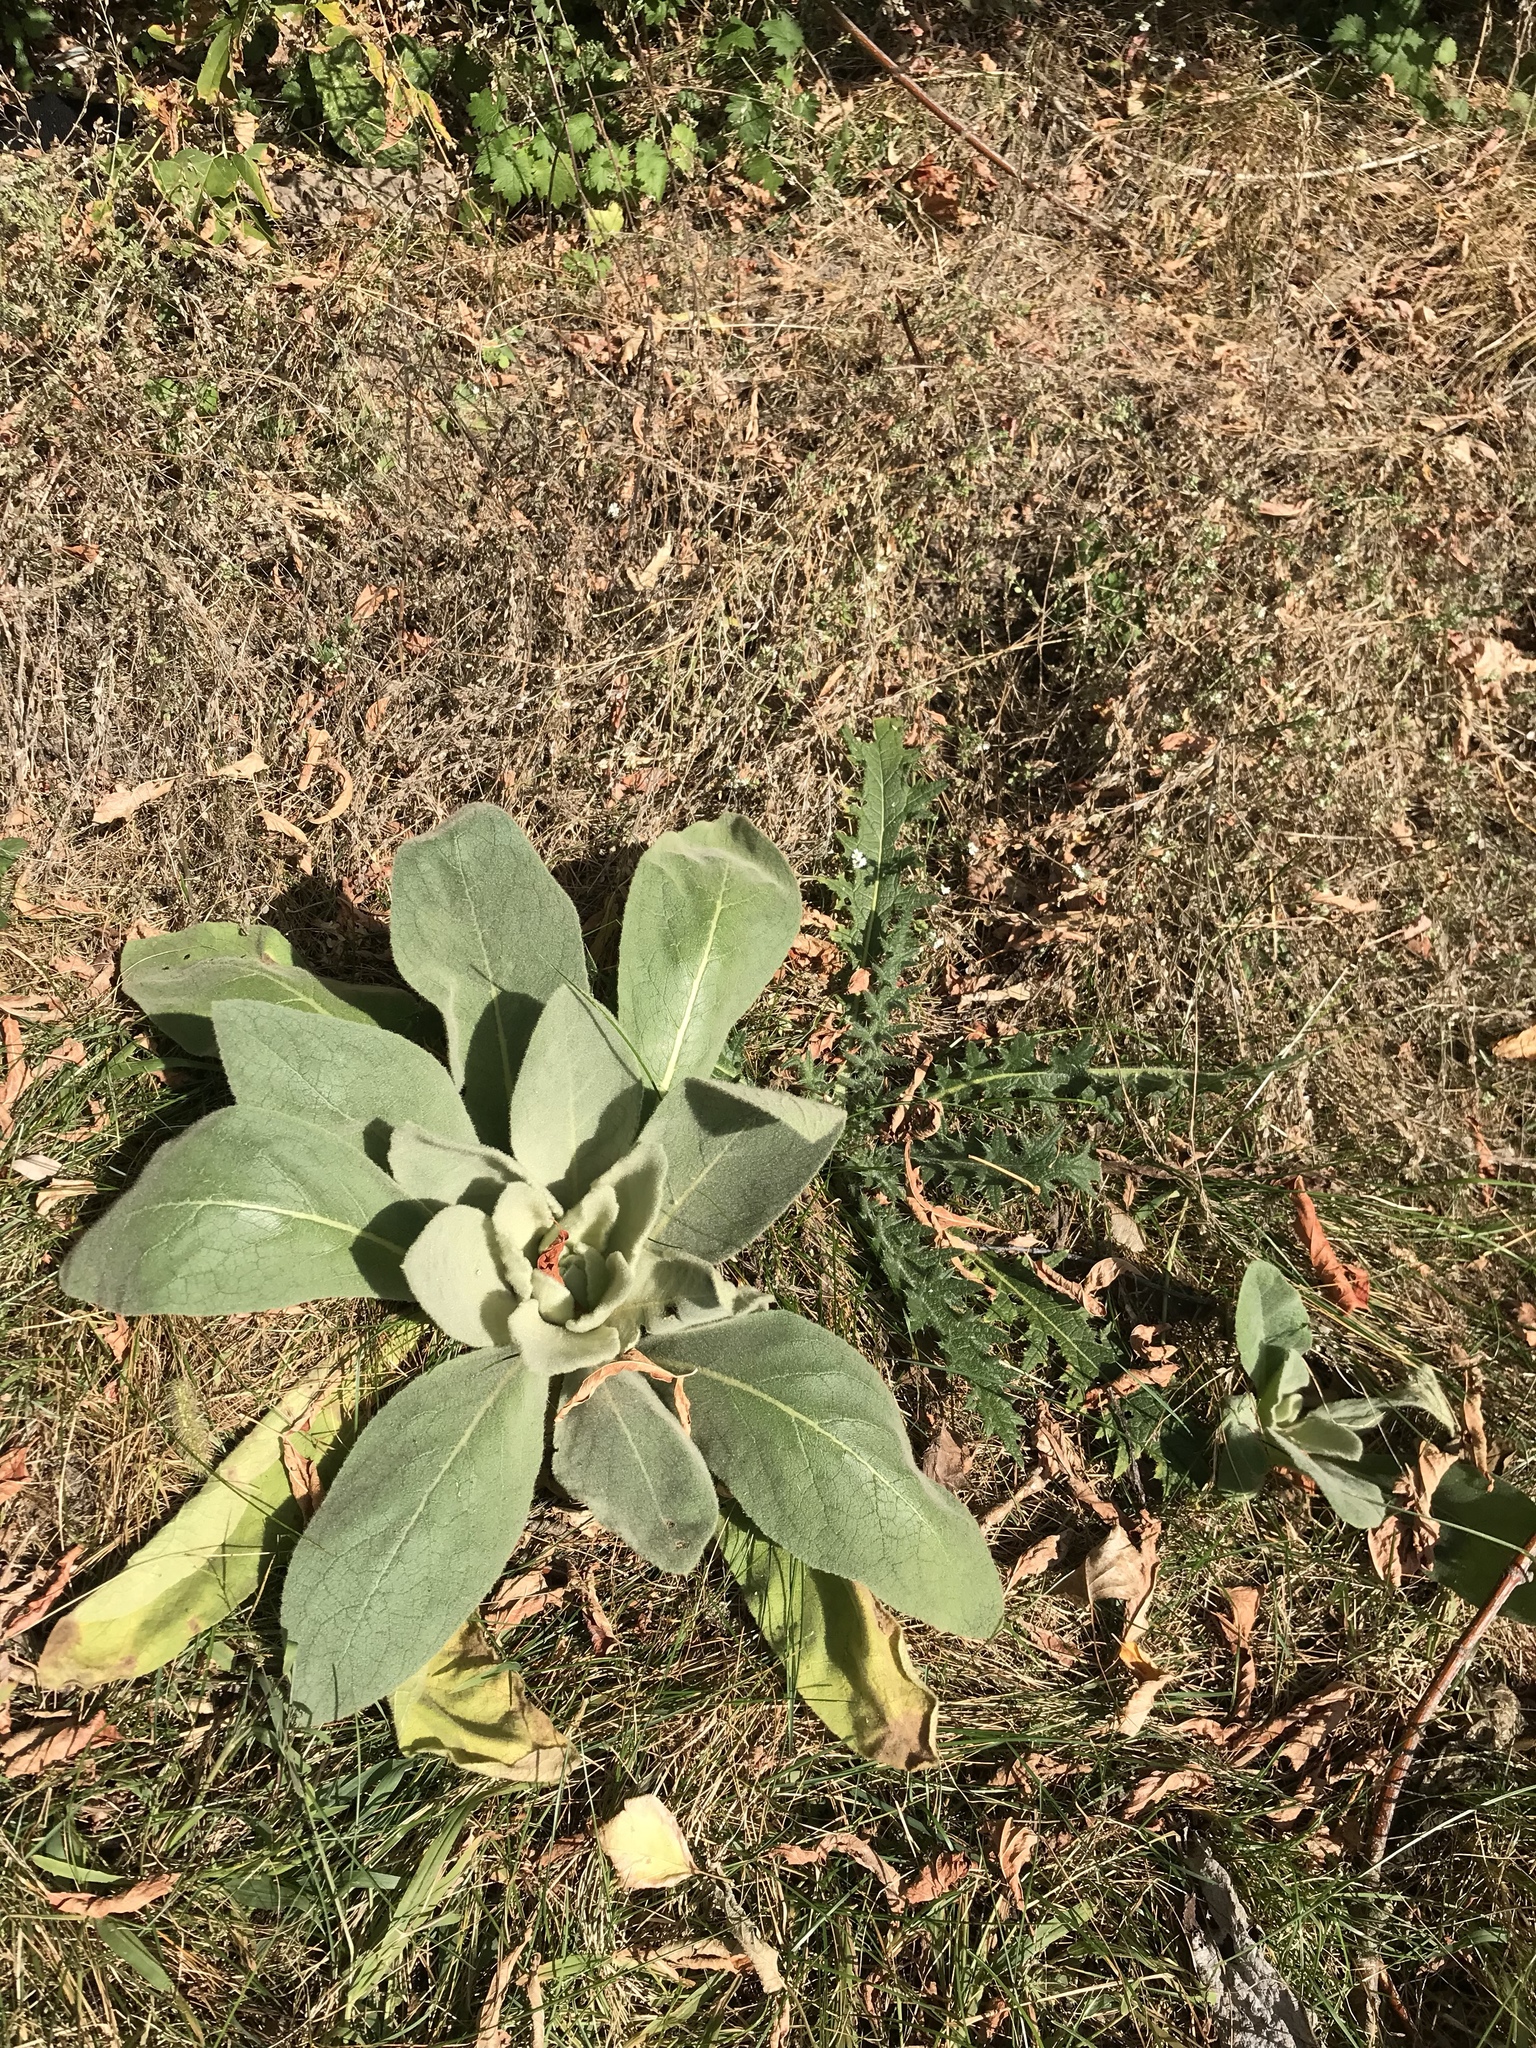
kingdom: Plantae
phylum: Tracheophyta
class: Magnoliopsida
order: Lamiales
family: Scrophulariaceae
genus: Verbascum
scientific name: Verbascum thapsus
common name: Common mullein
